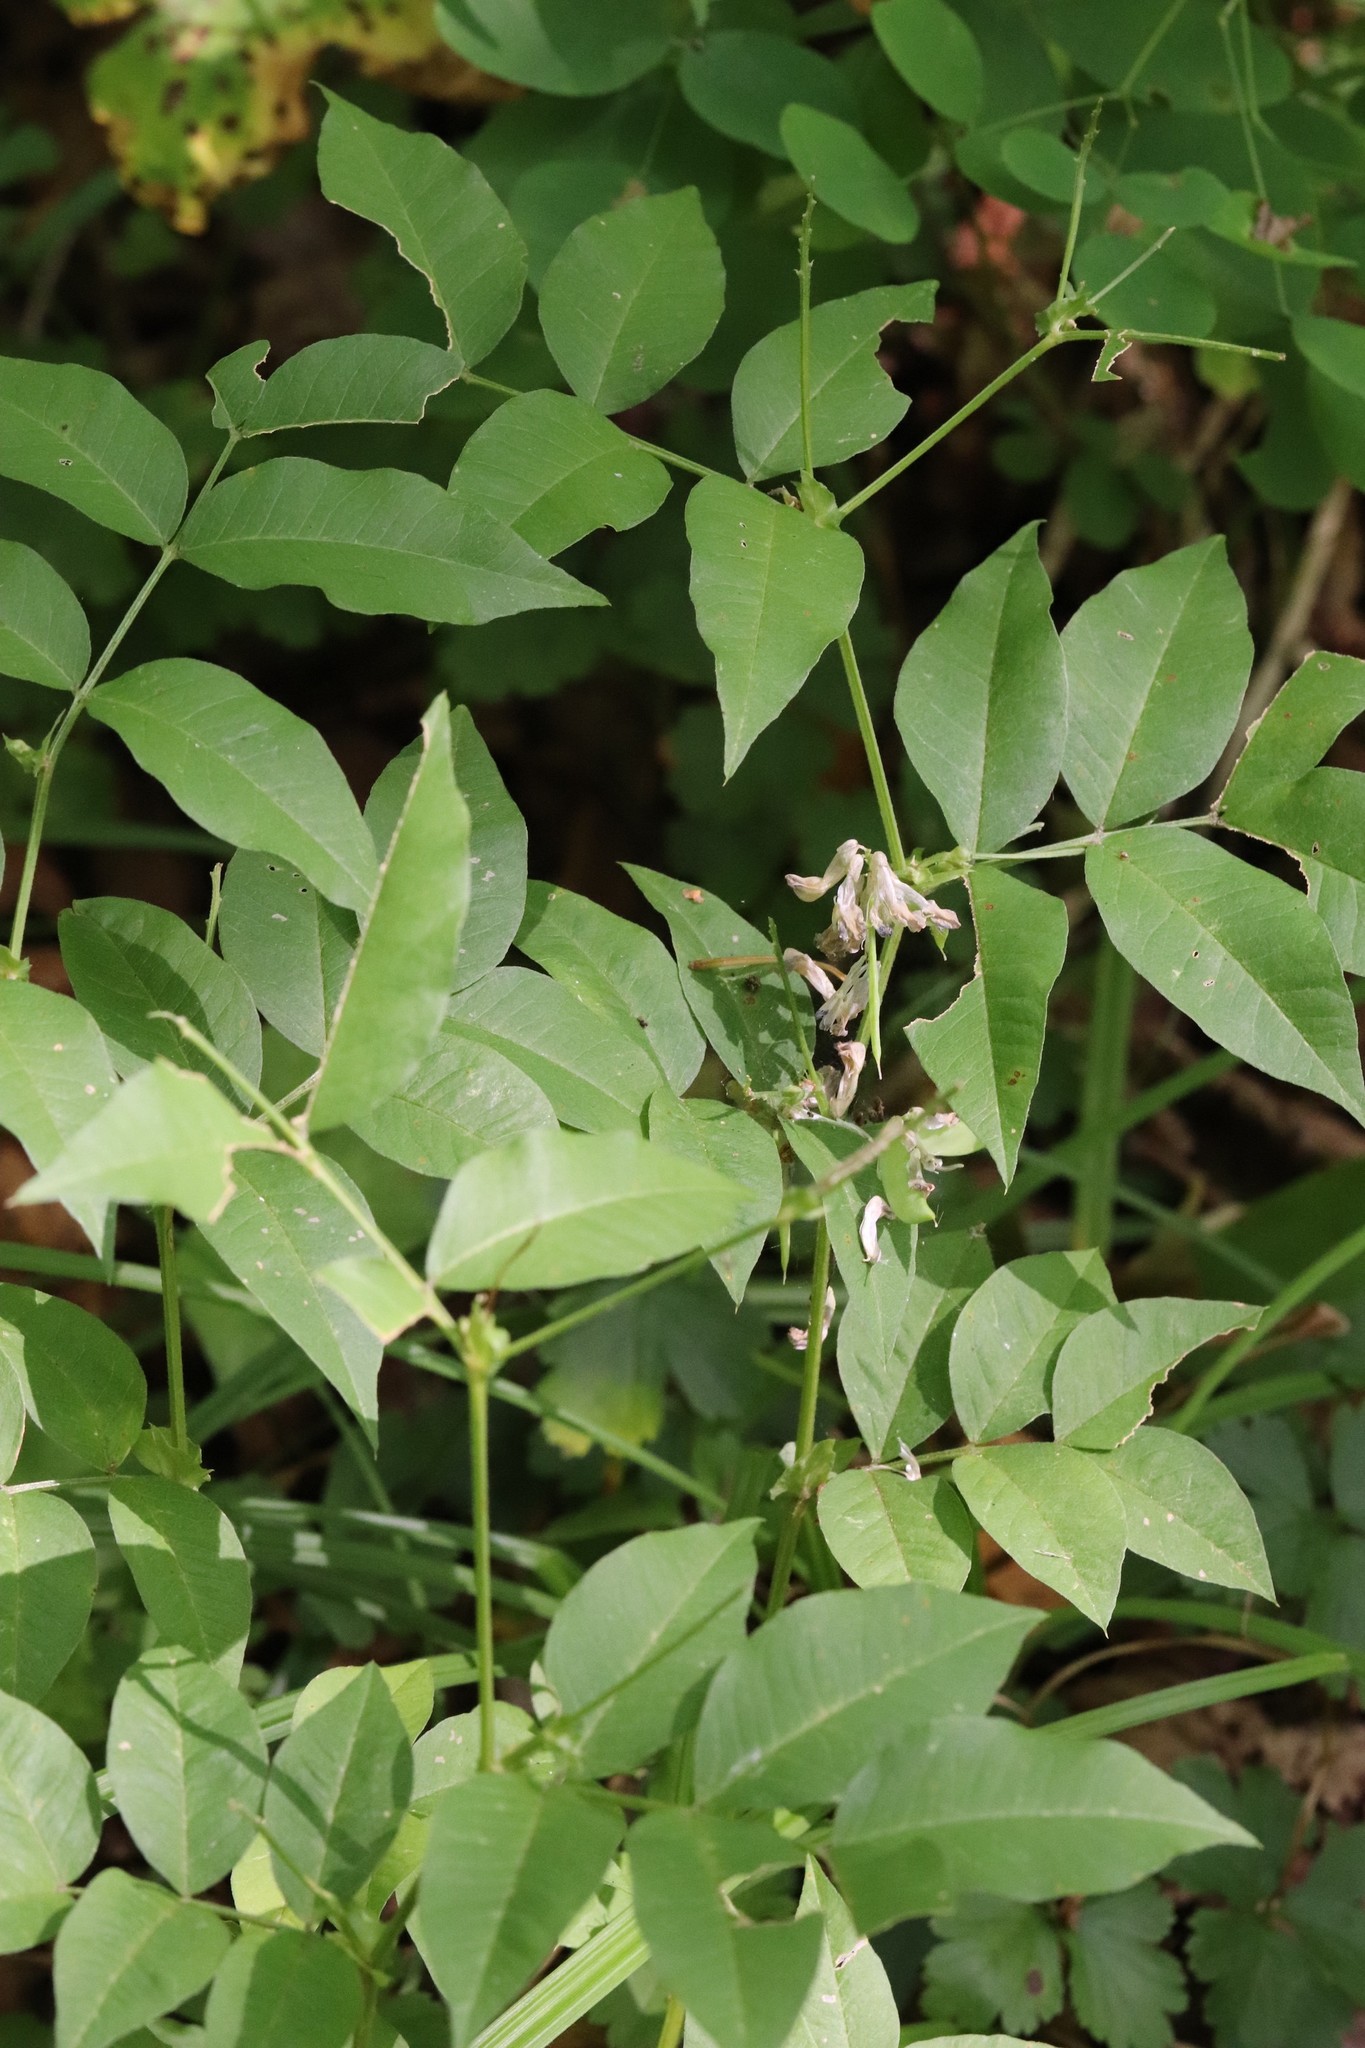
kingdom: Plantae
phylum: Tracheophyta
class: Magnoliopsida
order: Fabales
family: Fabaceae
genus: Vicia
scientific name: Vicia ramuliflora
